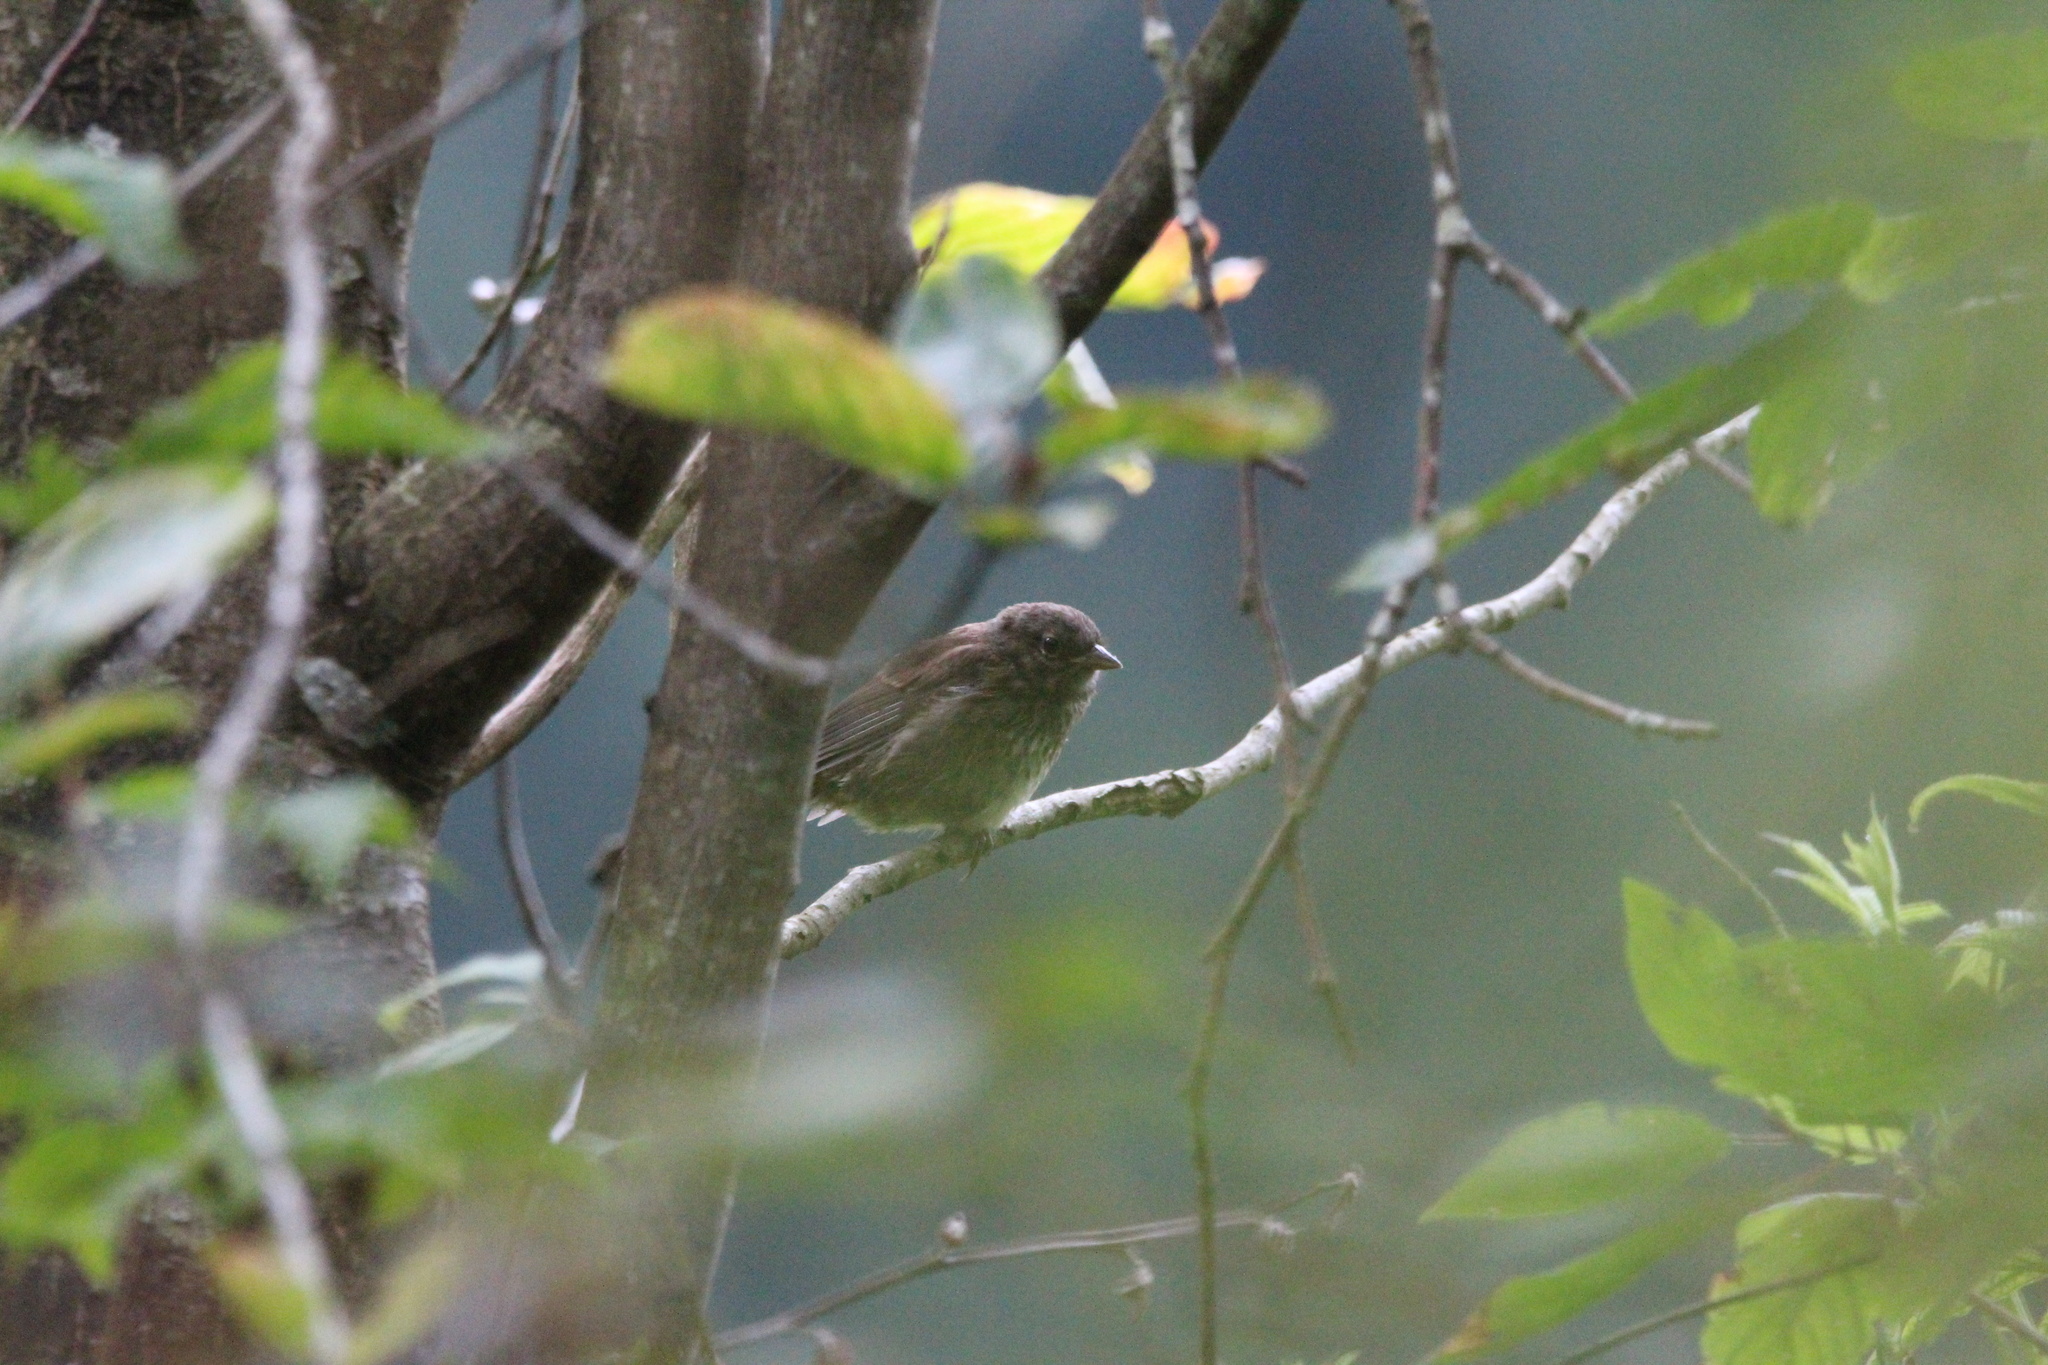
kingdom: Animalia
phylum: Chordata
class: Aves
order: Passeriformes
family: Passerellidae
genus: Melospiza
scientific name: Melospiza melodia
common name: Song sparrow
